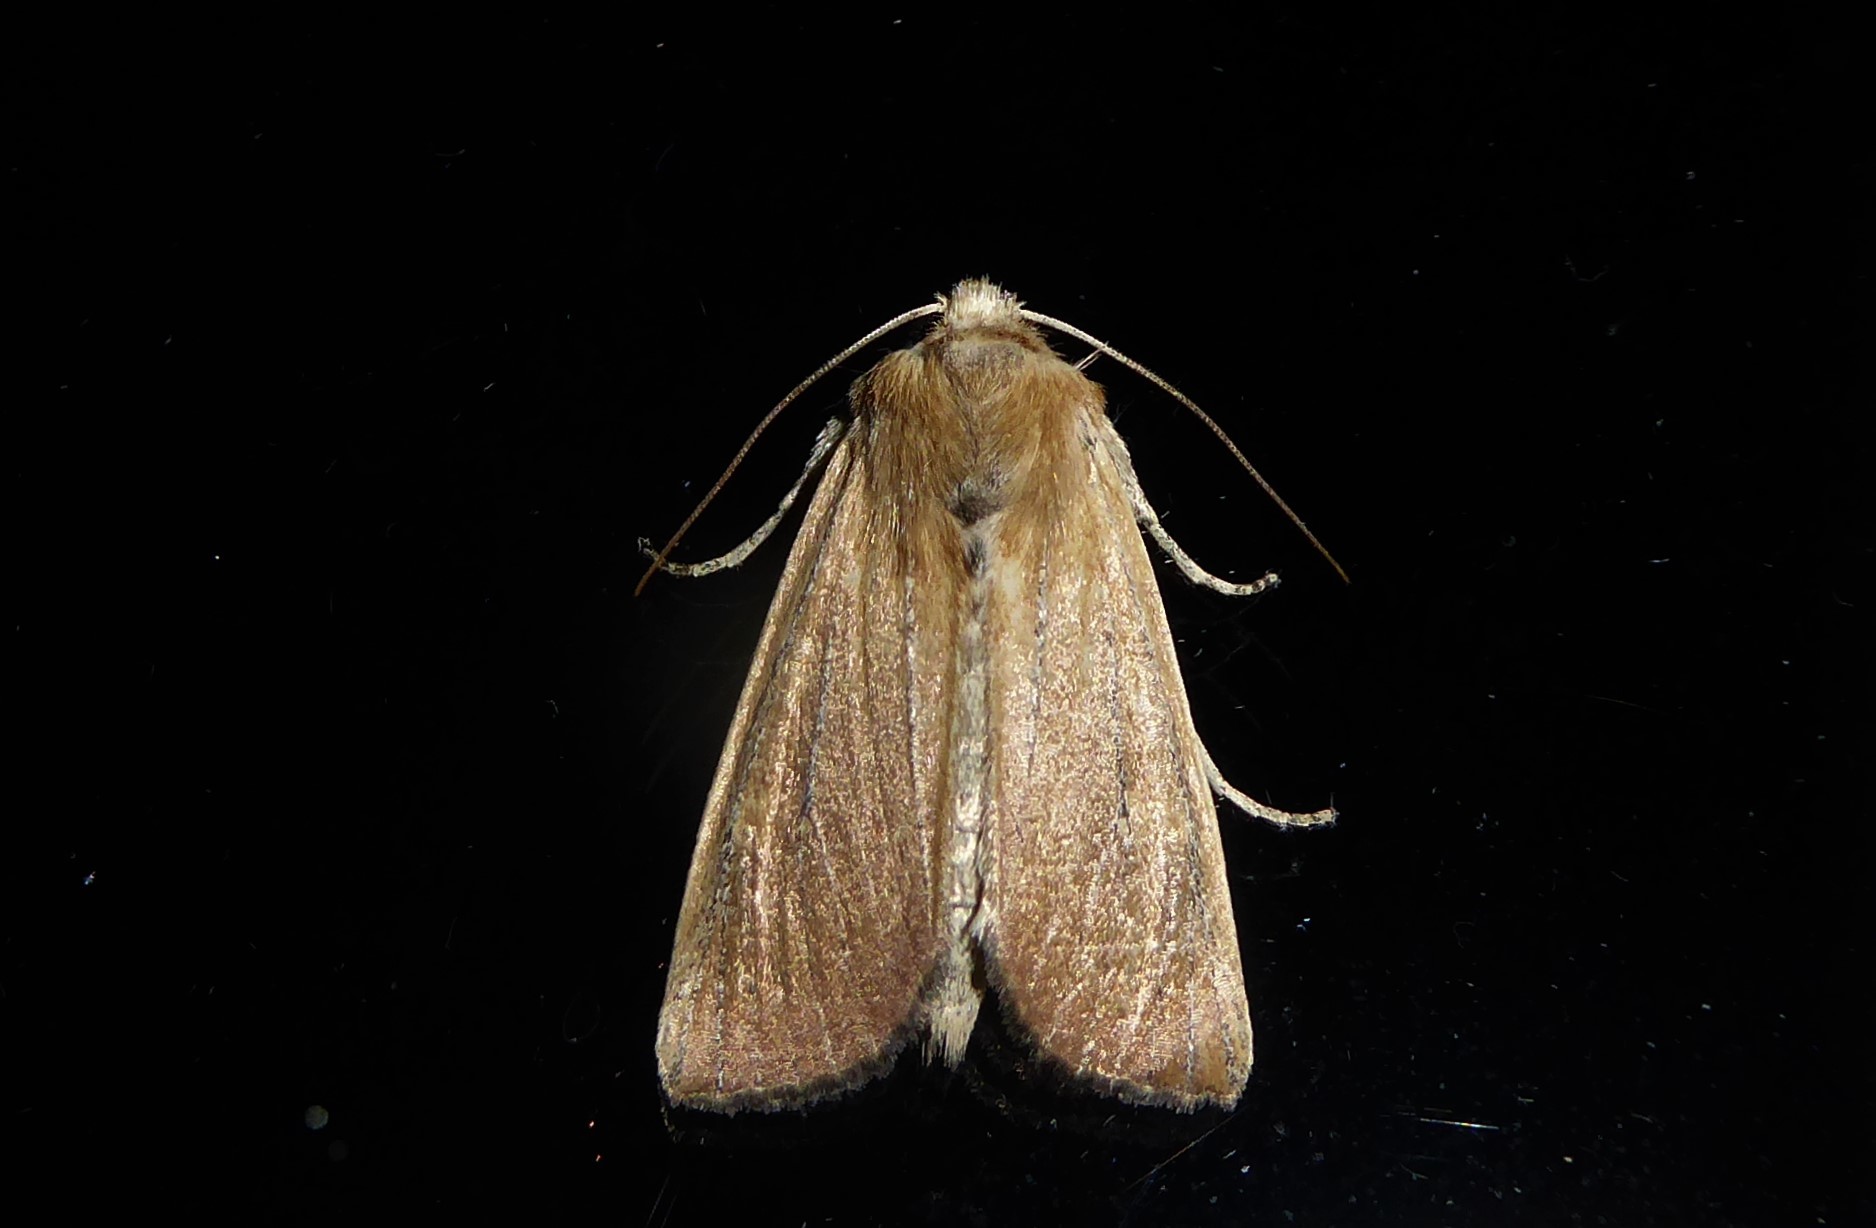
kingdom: Animalia
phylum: Arthropoda
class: Insecta
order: Lepidoptera
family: Noctuidae
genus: Ichneutica
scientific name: Ichneutica blenheimensis
